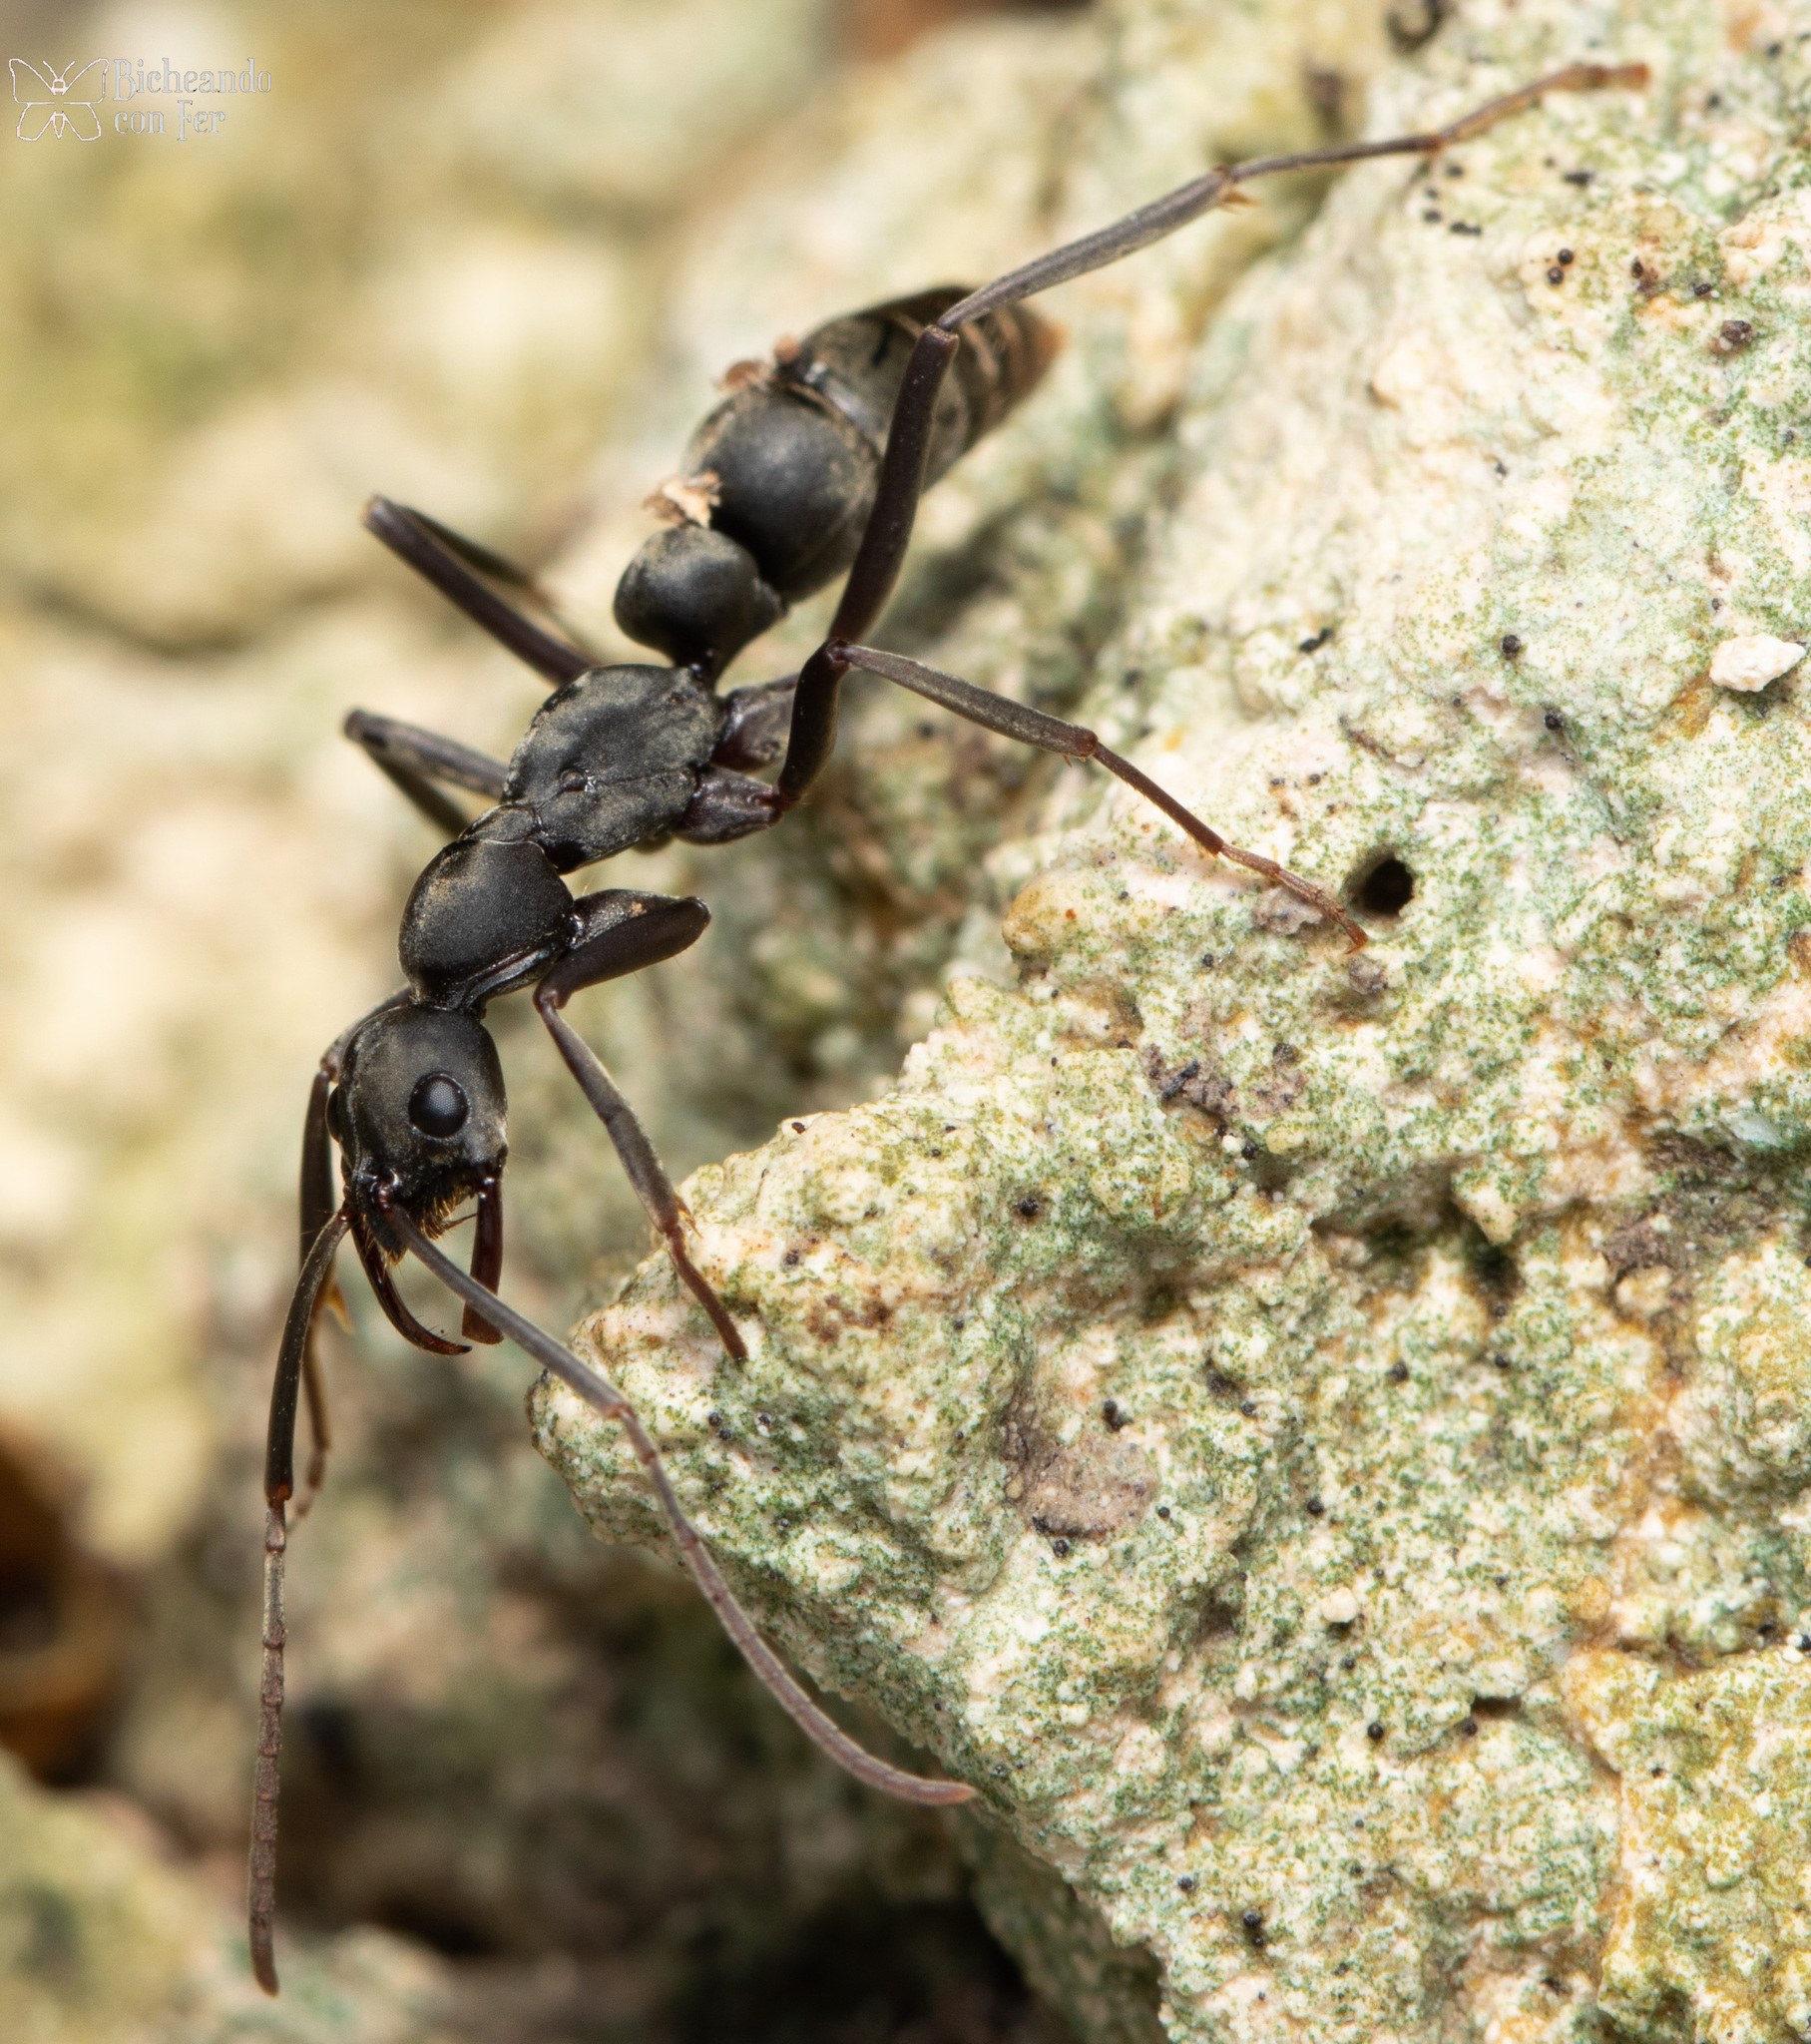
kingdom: Animalia
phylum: Arthropoda
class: Insecta
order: Hymenoptera
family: Formicidae
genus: Leptogenys
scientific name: Leptogenys
